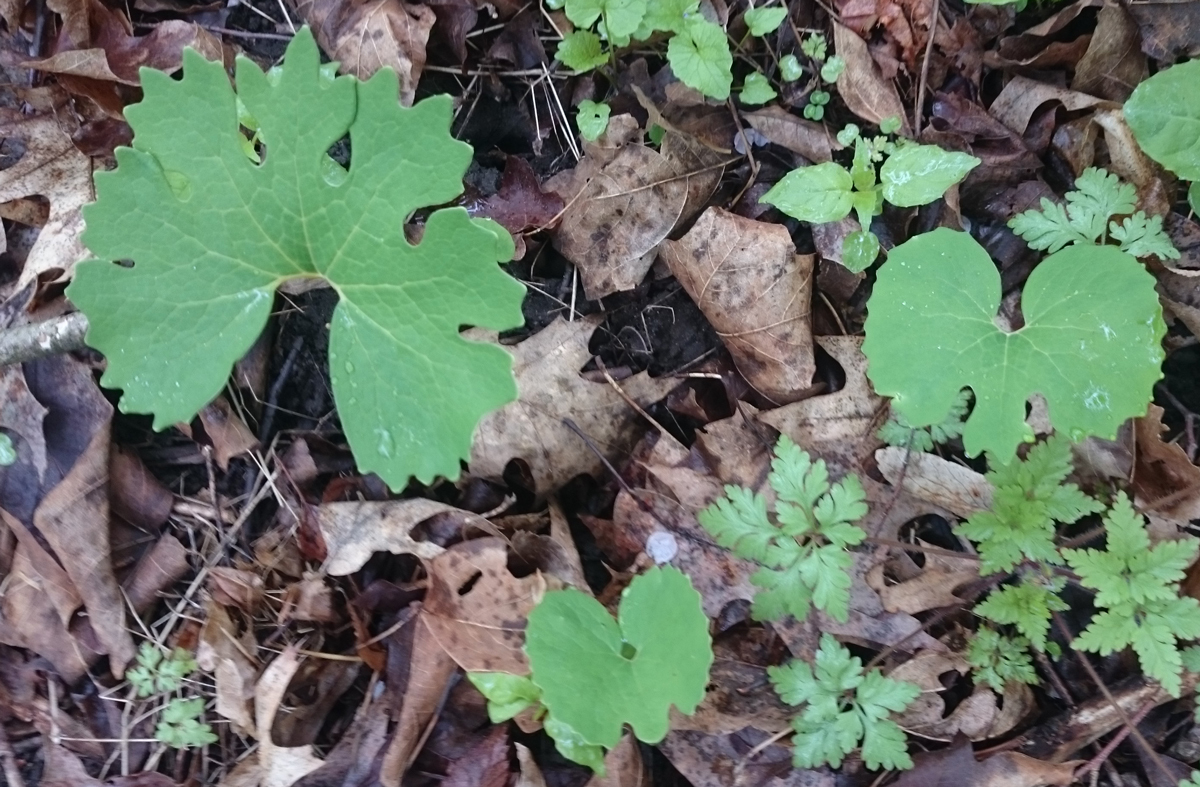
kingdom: Plantae
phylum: Tracheophyta
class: Magnoliopsida
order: Ranunculales
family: Papaveraceae
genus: Sanguinaria
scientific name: Sanguinaria canadensis
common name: Bloodroot
